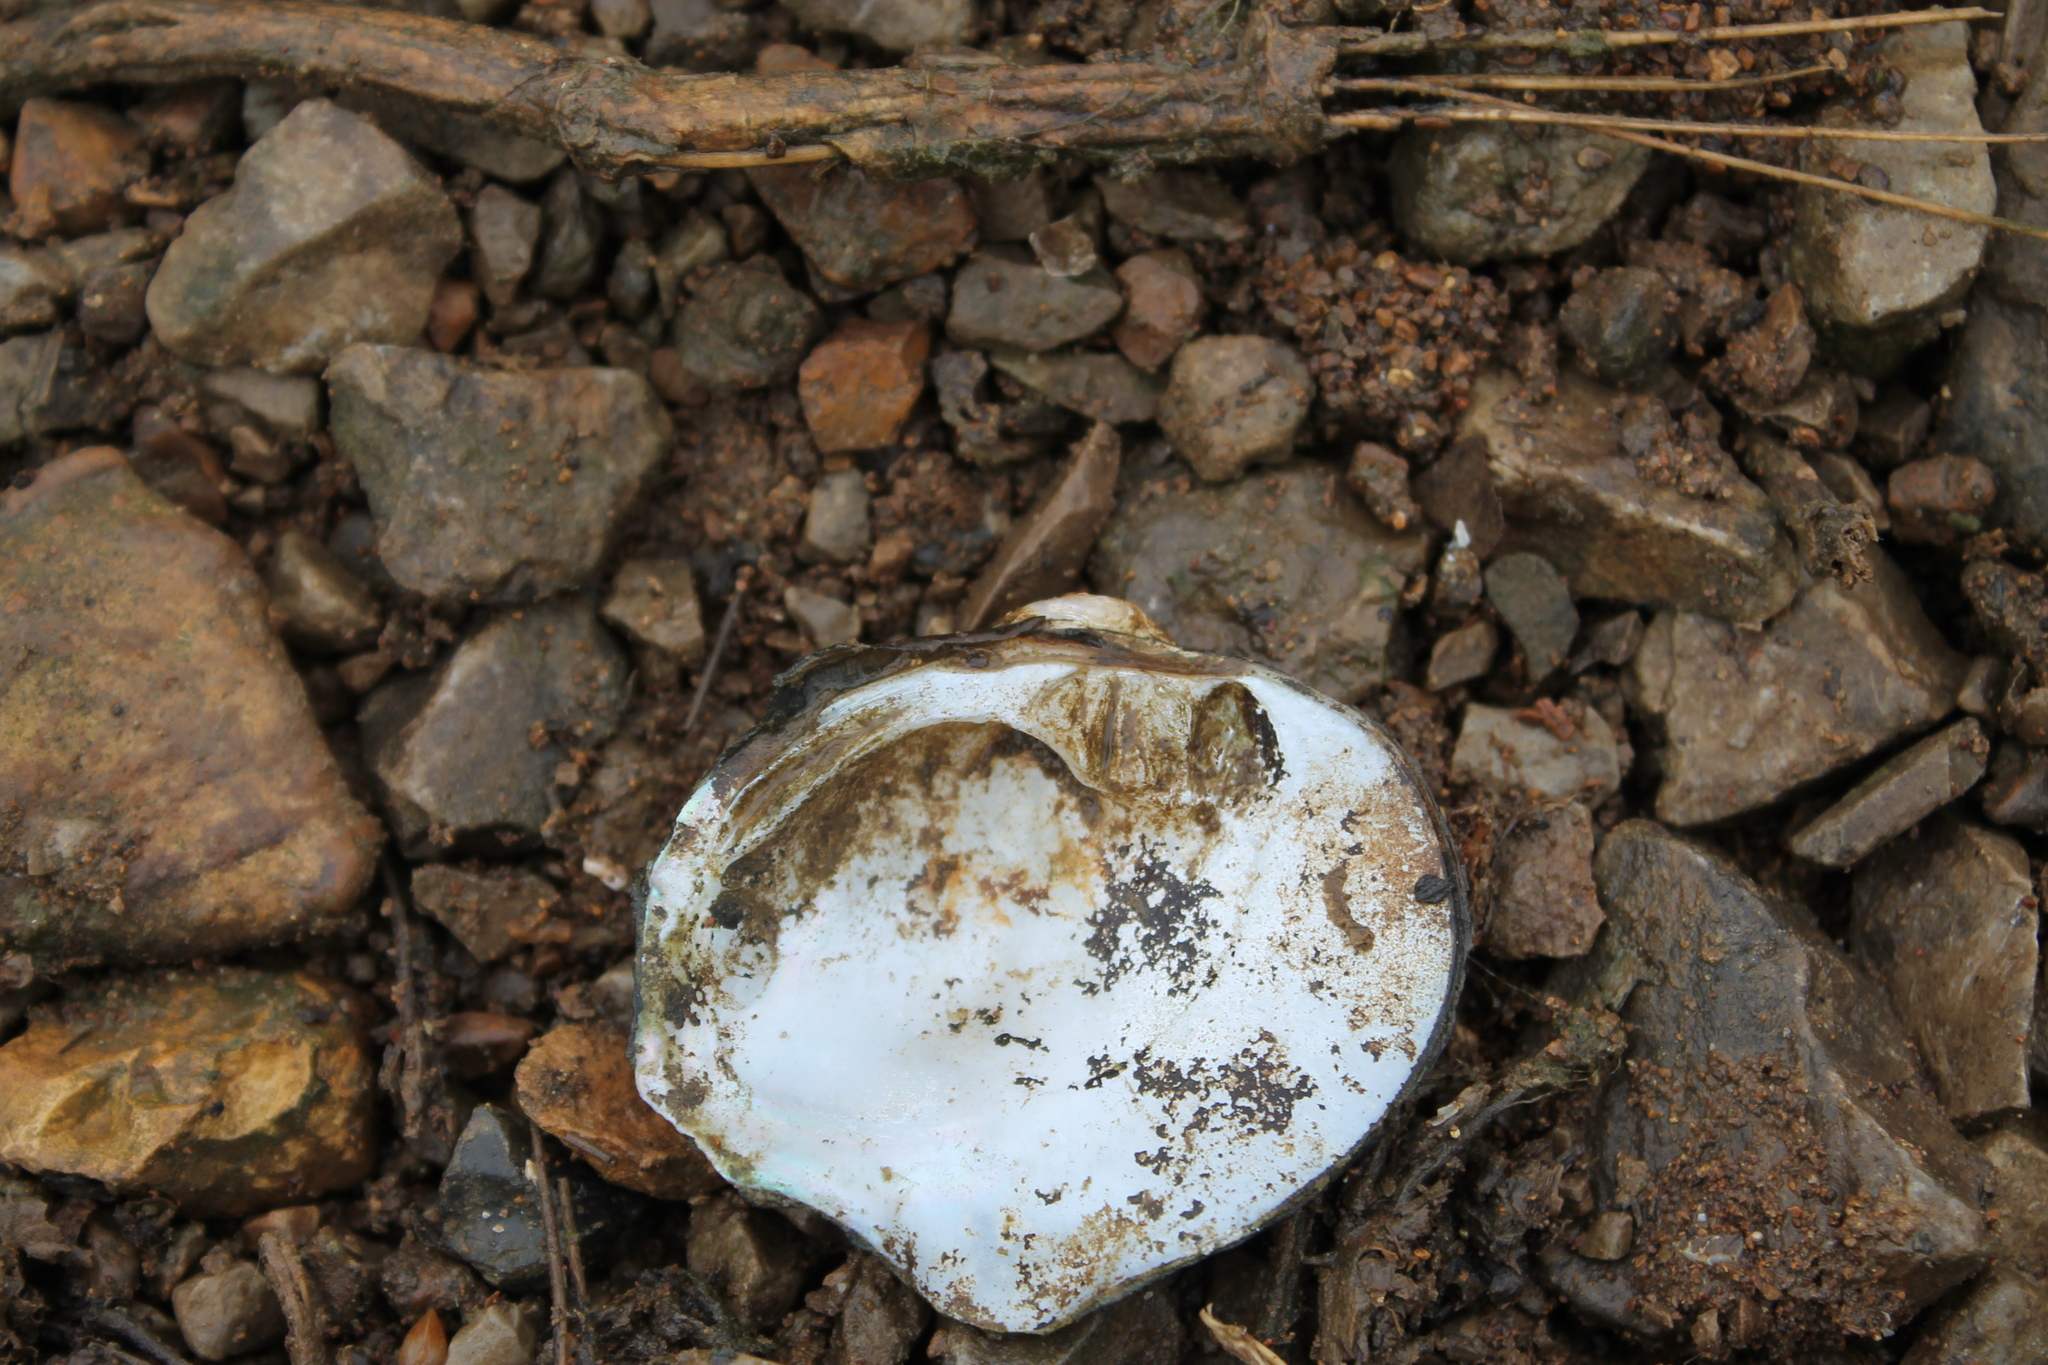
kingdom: Animalia
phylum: Mollusca
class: Bivalvia
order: Unionida
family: Unionidae
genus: Obliquaria
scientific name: Obliquaria reflexa
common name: Threehorn wartyback
